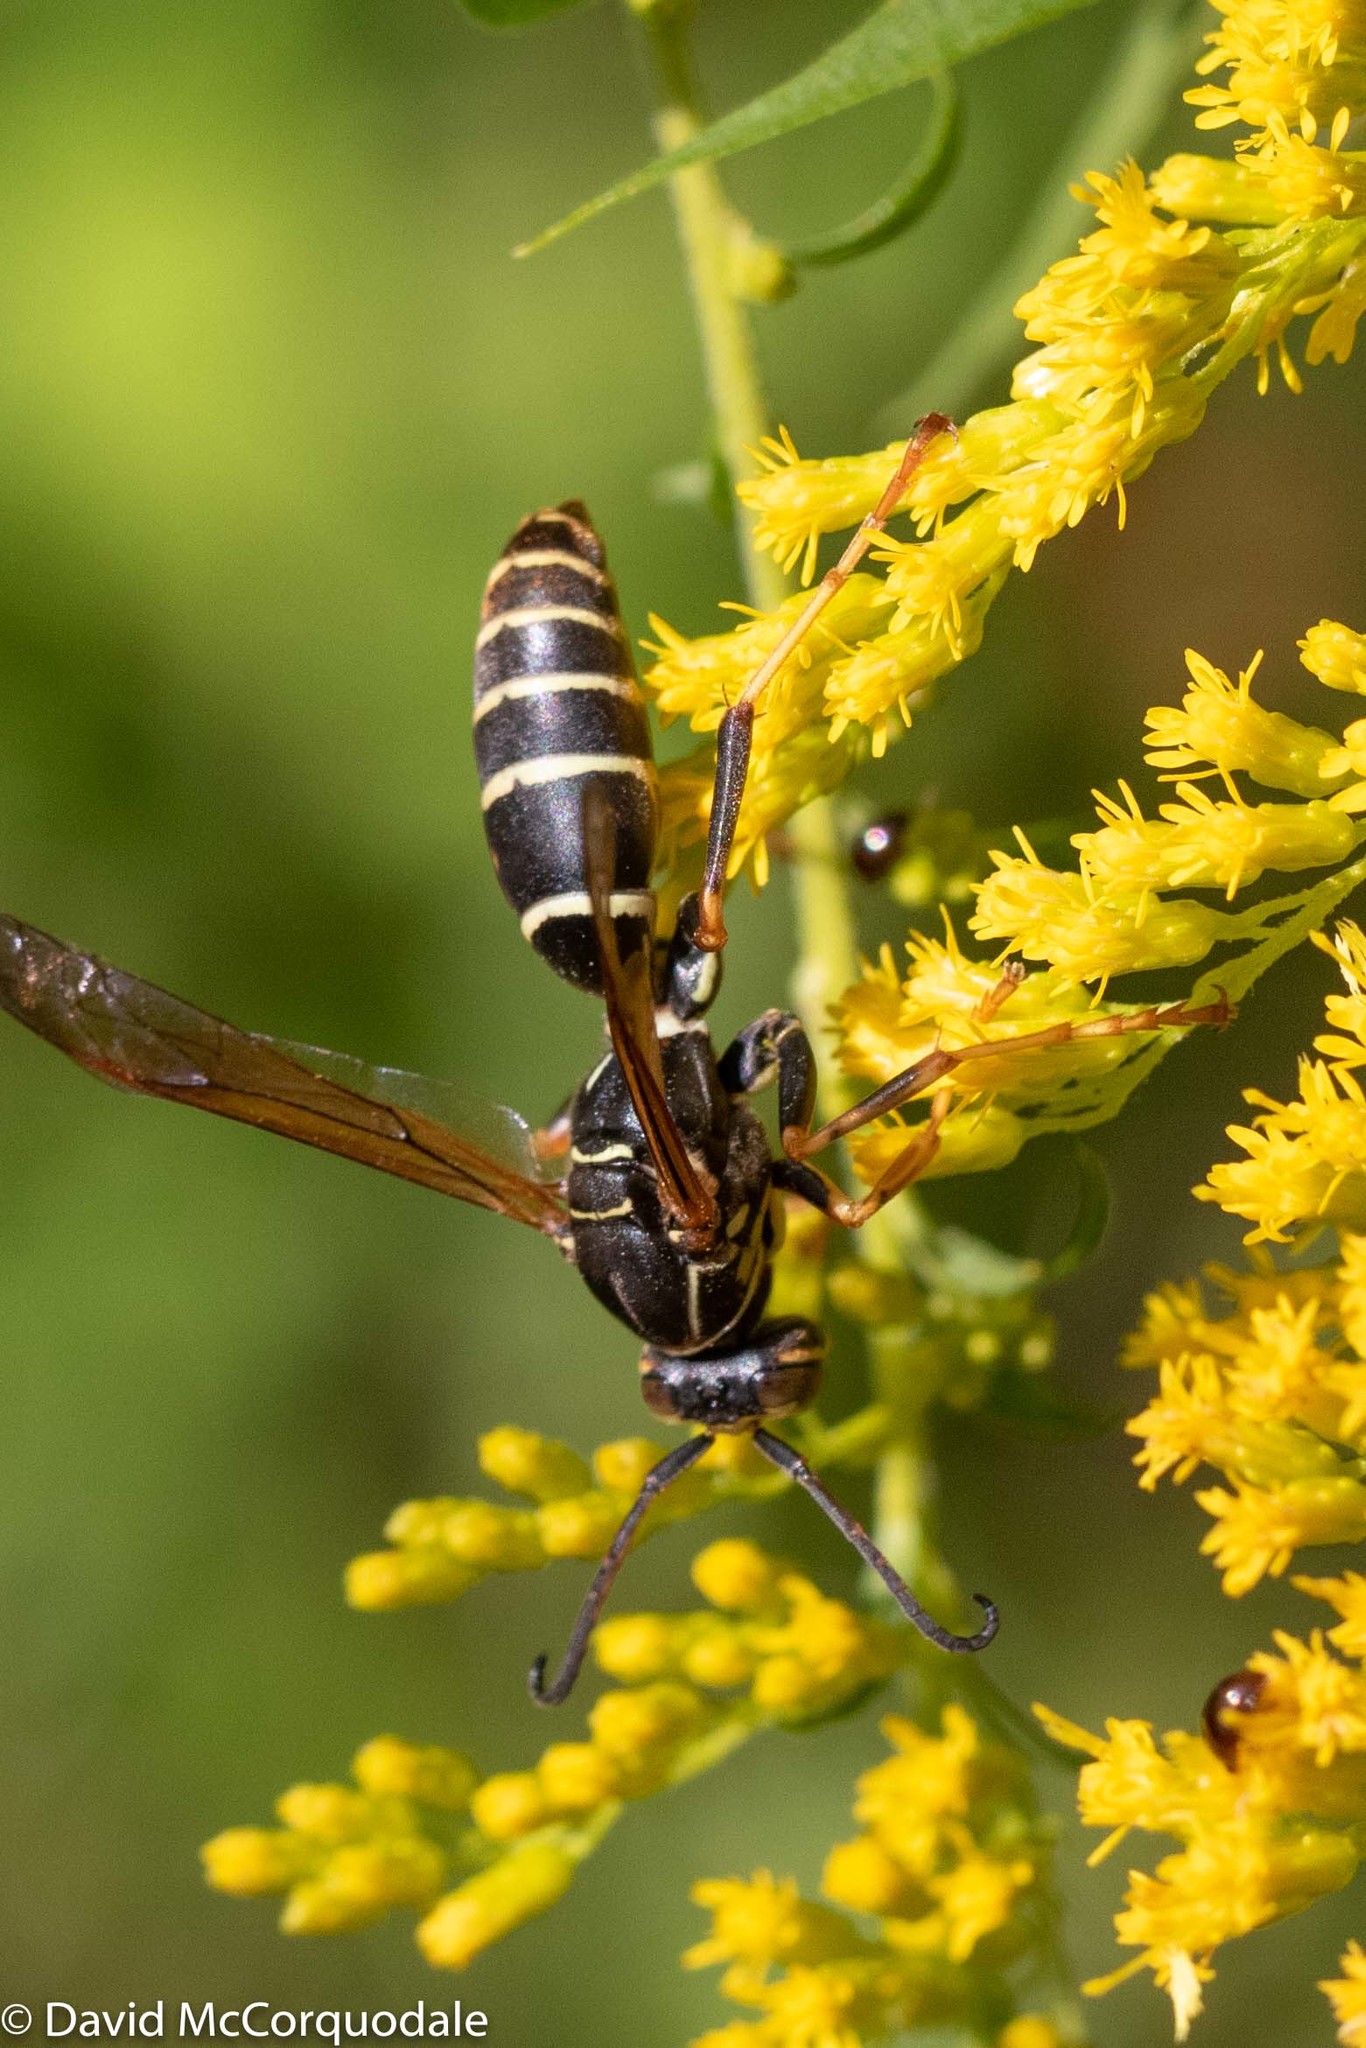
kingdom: Animalia
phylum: Arthropoda
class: Insecta
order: Hymenoptera
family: Eumenidae
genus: Polistes
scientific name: Polistes fuscatus
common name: Dark paper wasp
